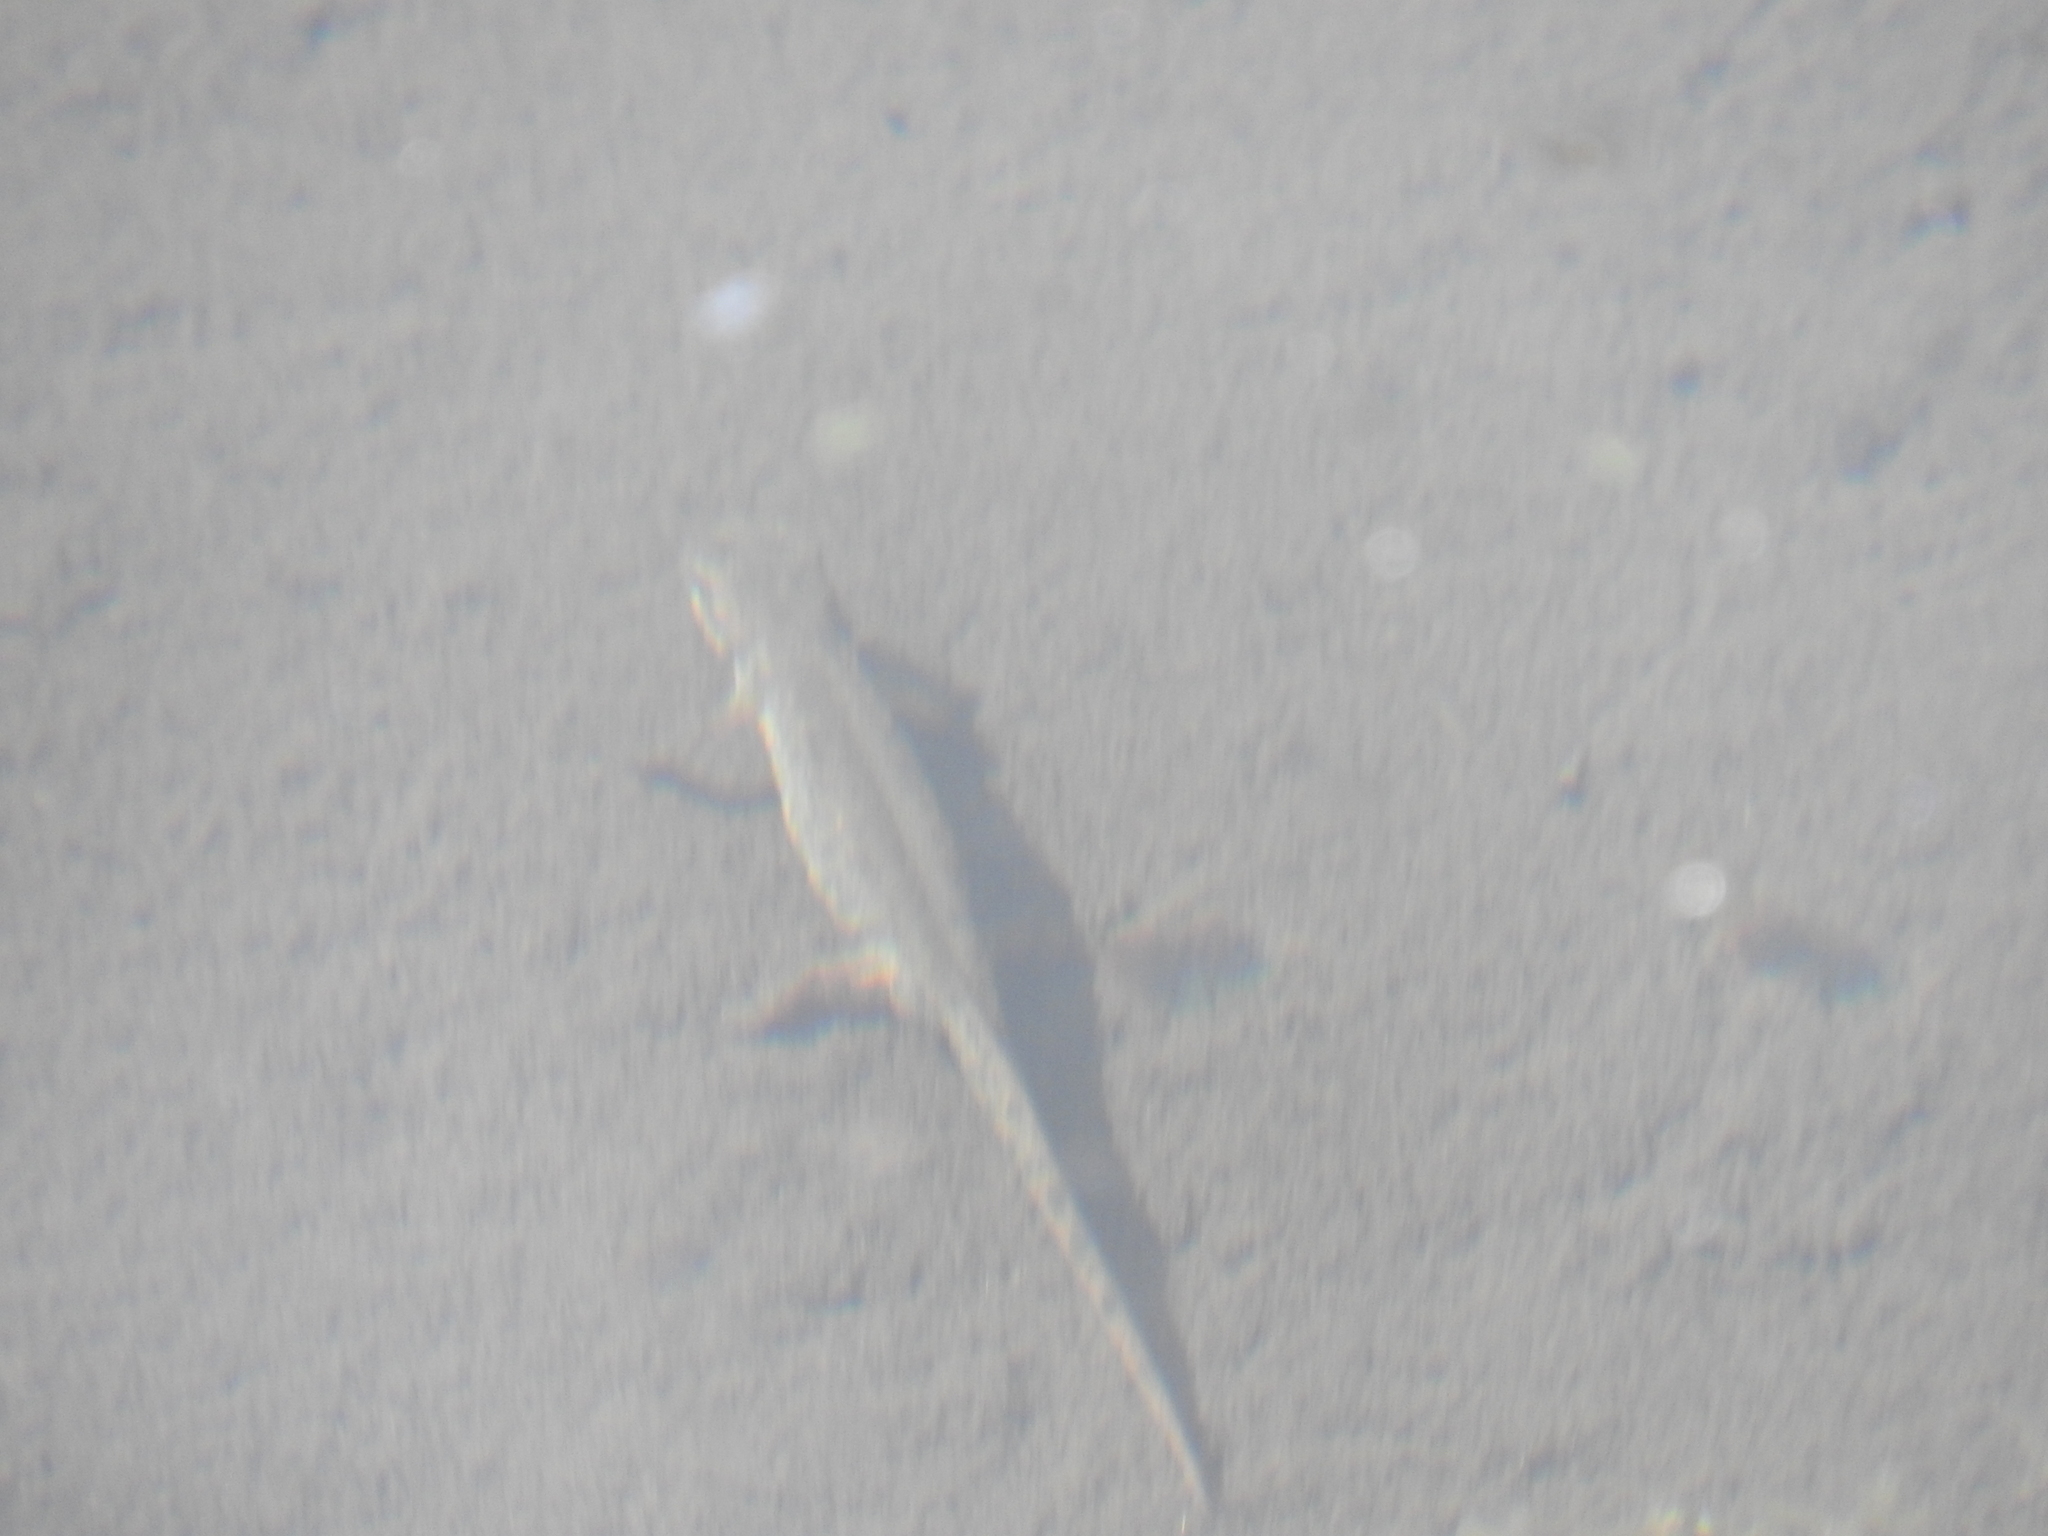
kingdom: Animalia
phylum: Chordata
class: Amphibia
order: Caudata
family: Salamandridae
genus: Lissotriton
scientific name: Lissotriton italicus
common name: Italian newt
